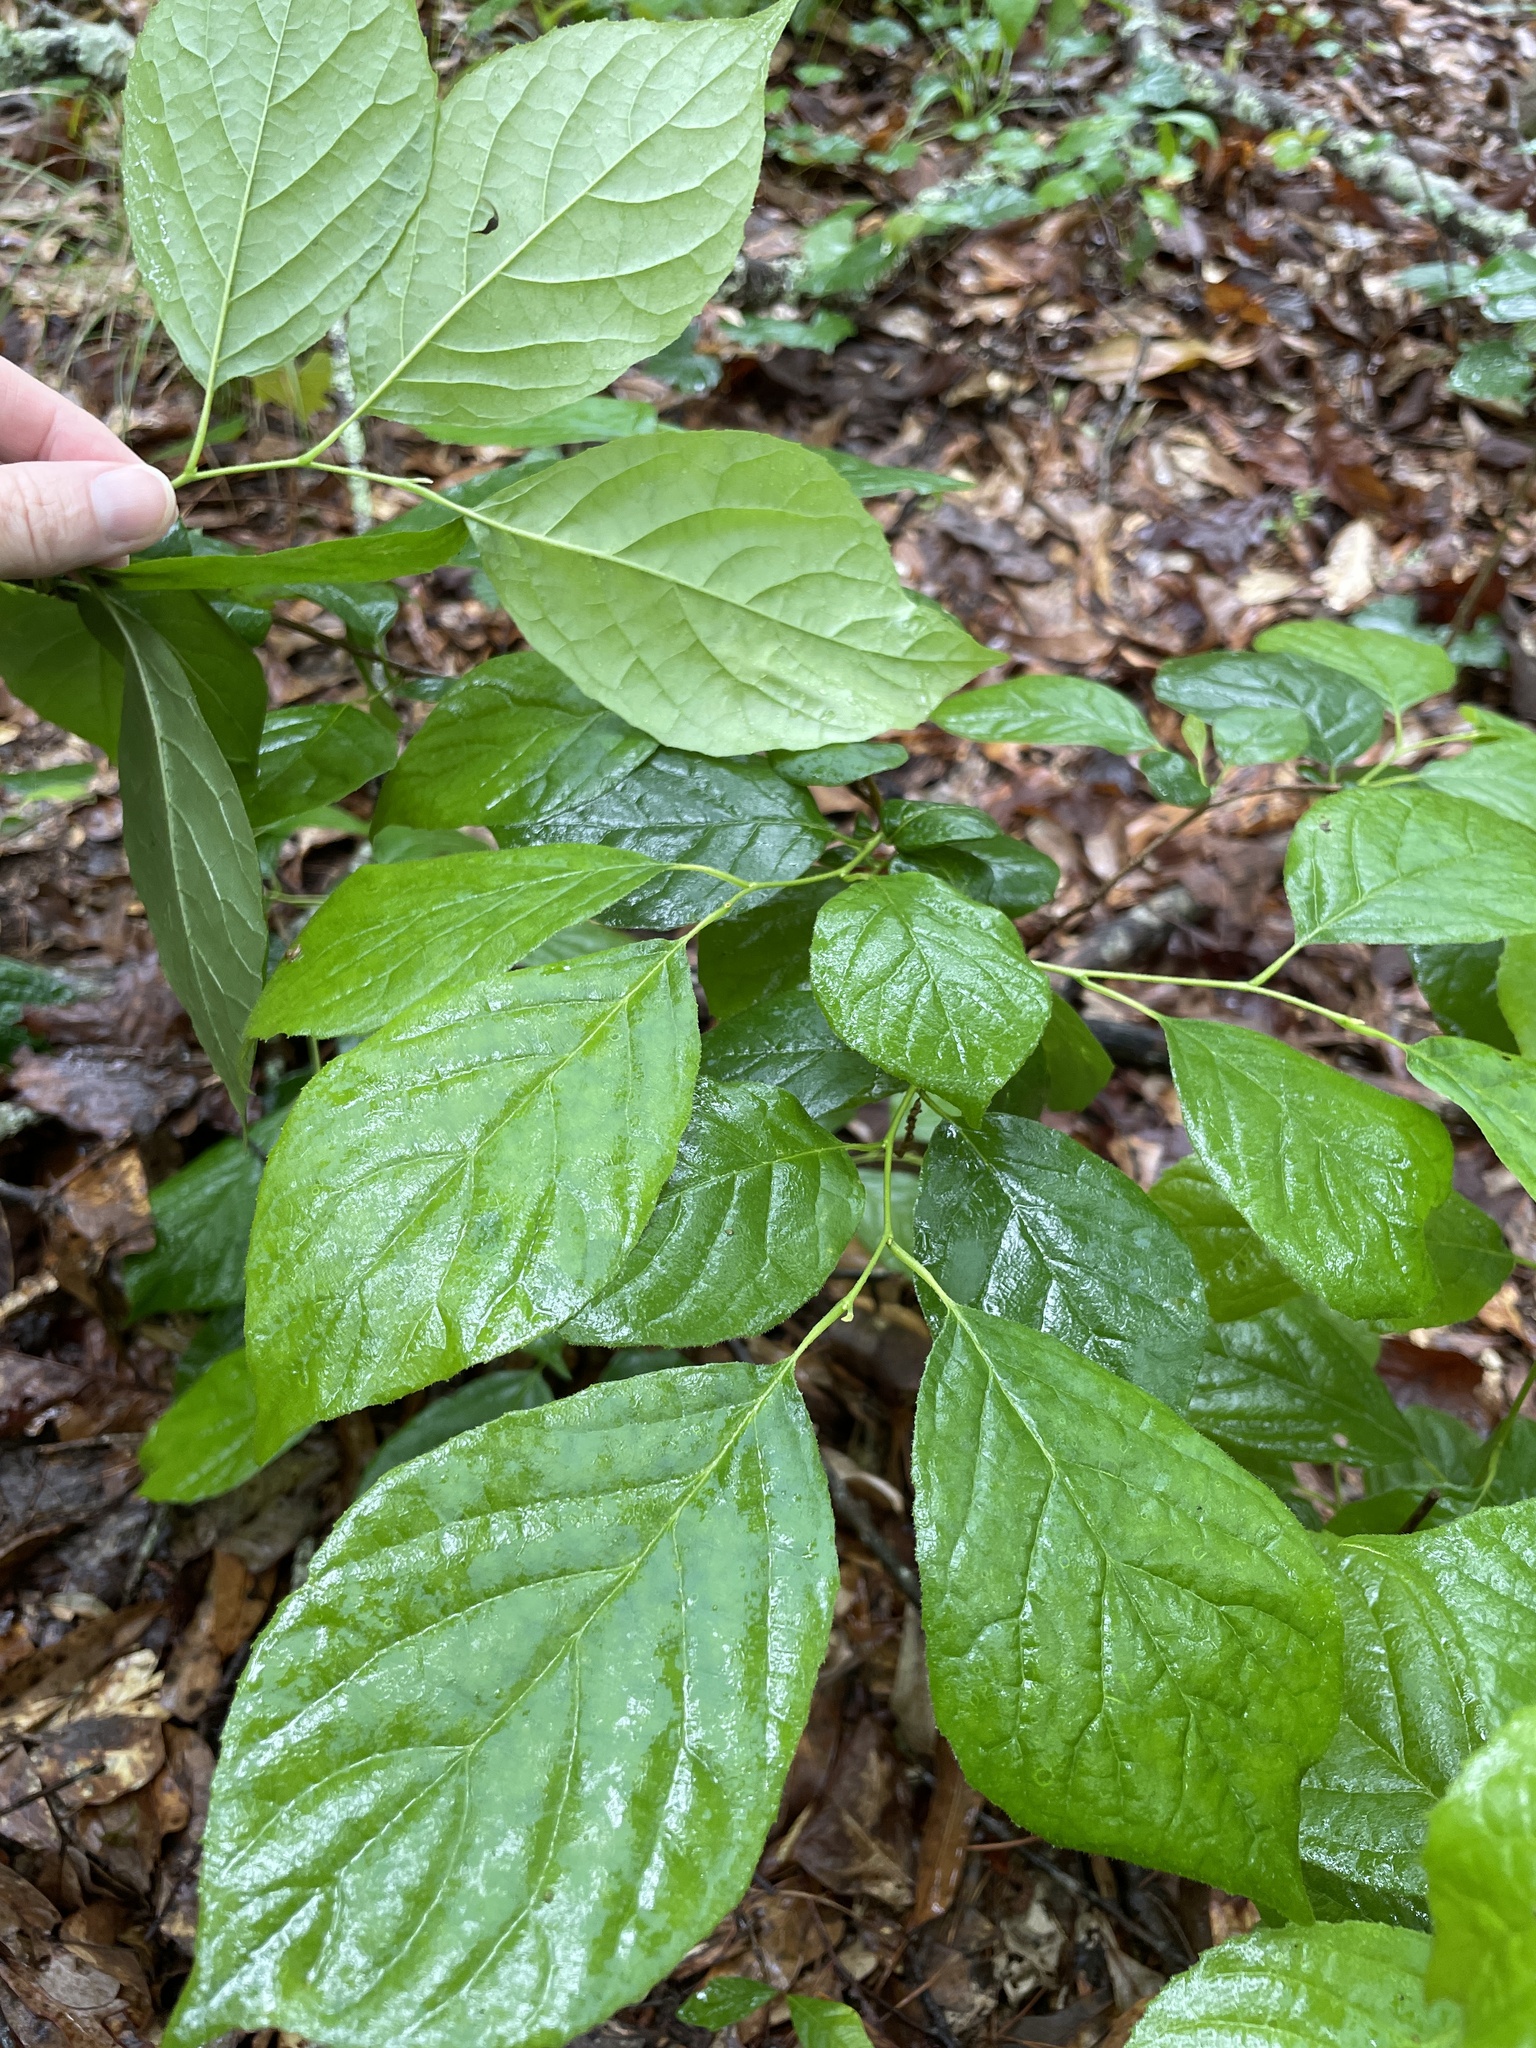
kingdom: Plantae
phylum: Tracheophyta
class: Magnoliopsida
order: Ericales
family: Styracaceae
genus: Halesia
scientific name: Halesia diptera
